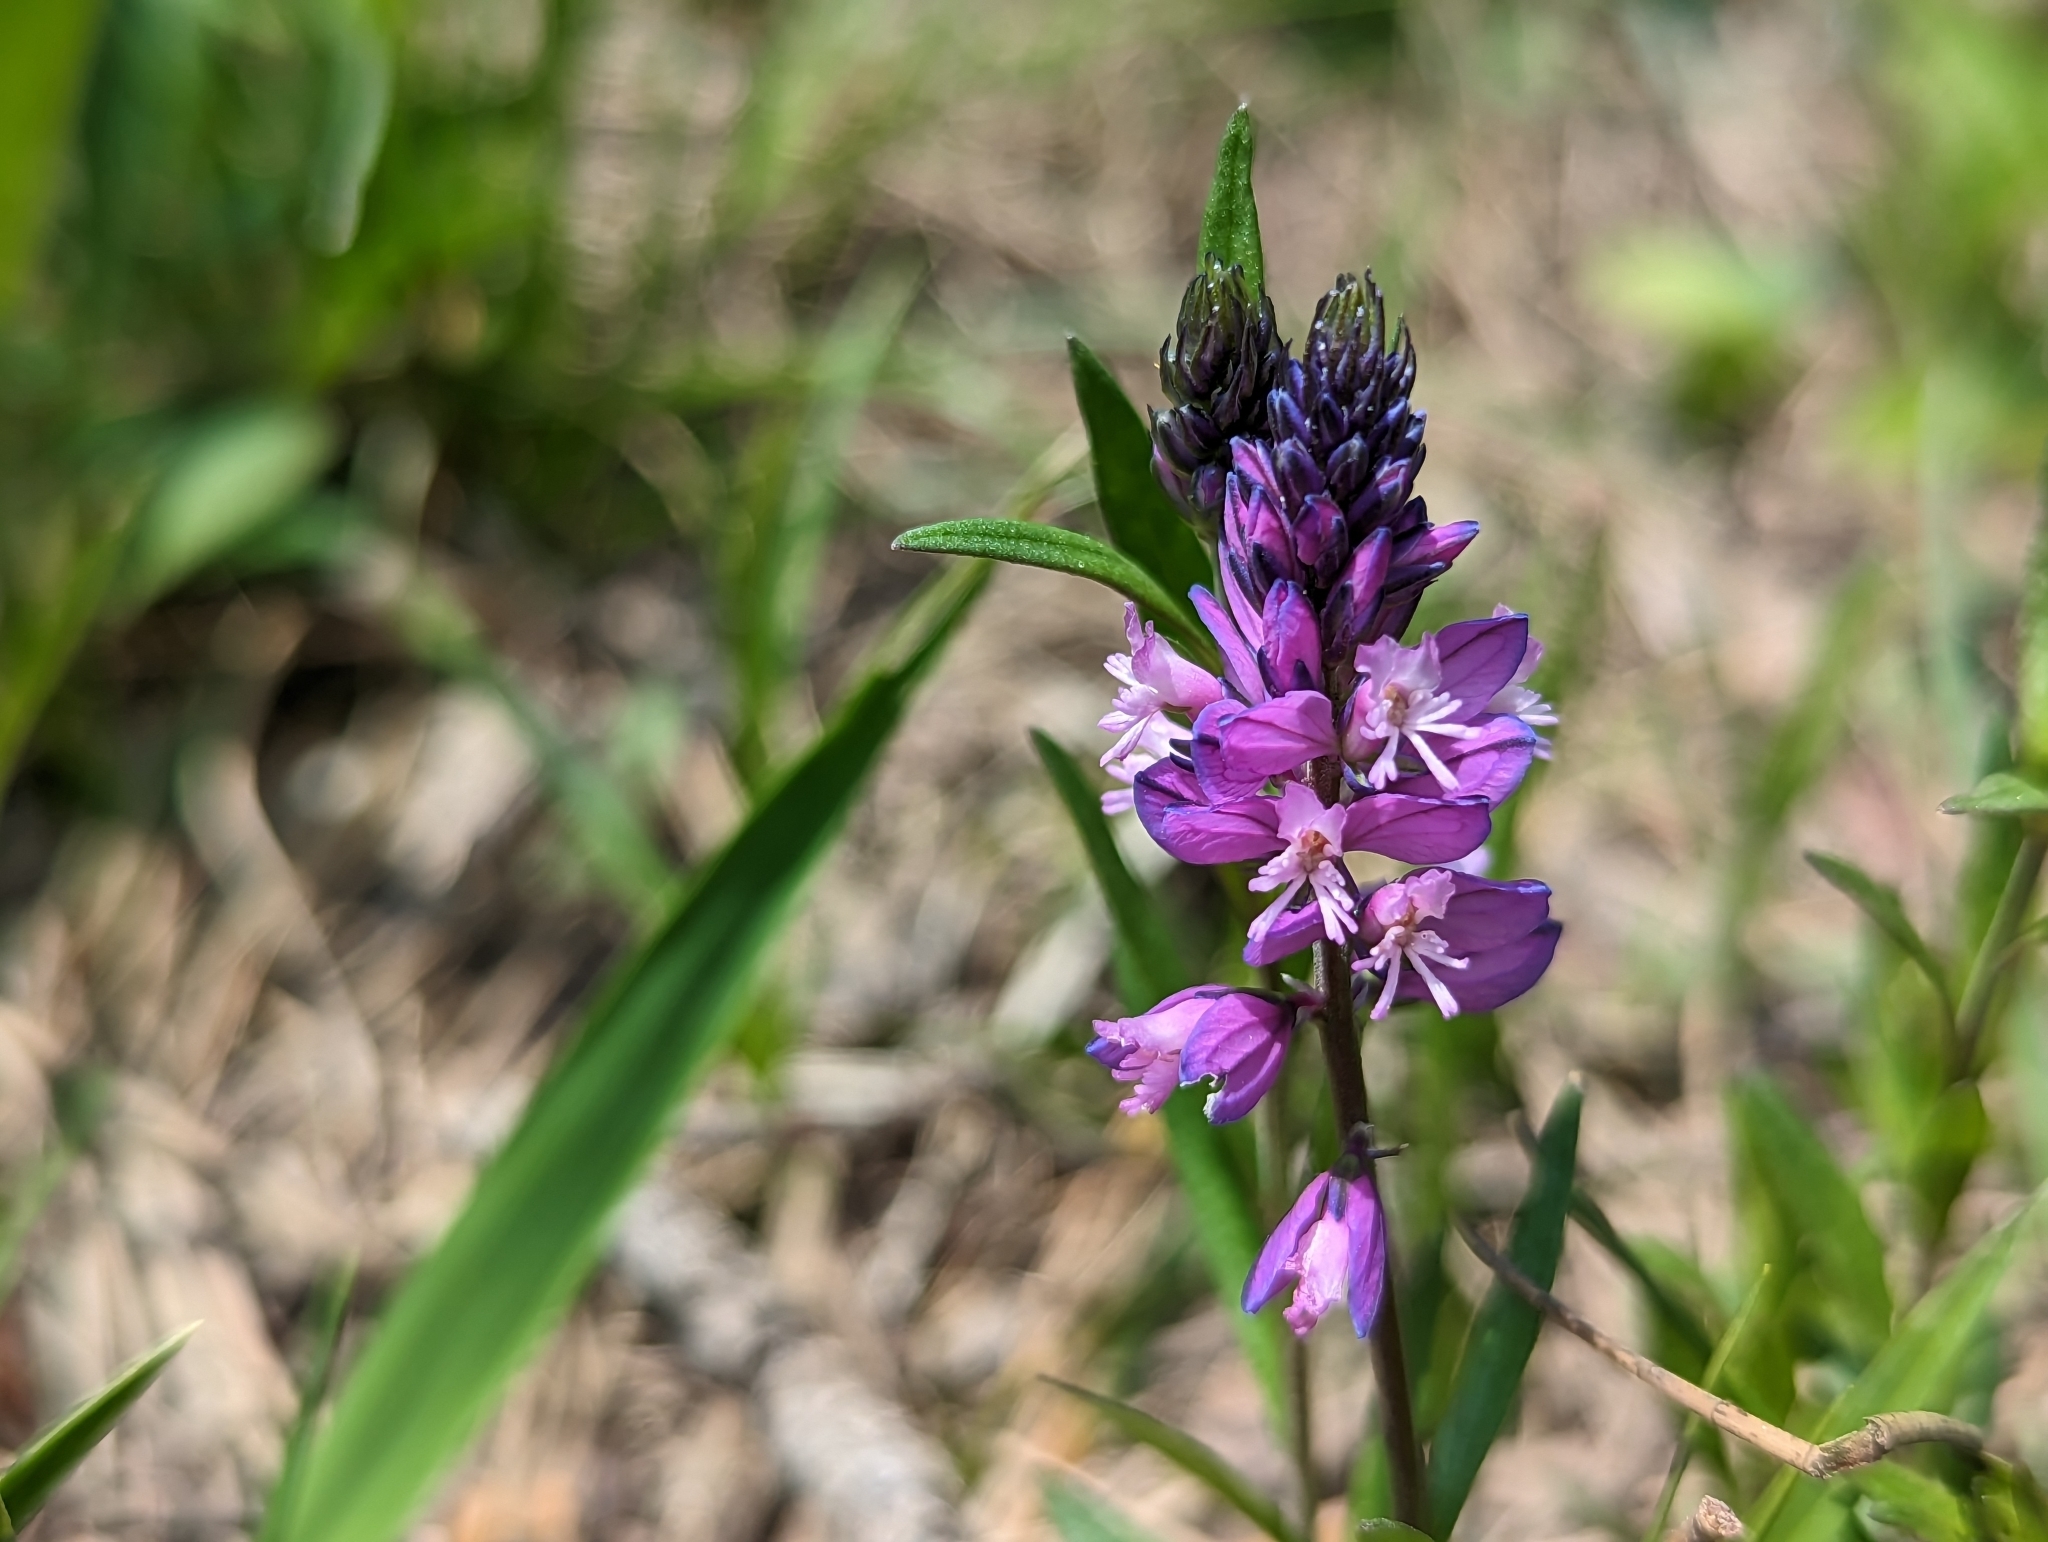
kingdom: Plantae
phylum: Tracheophyta
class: Magnoliopsida
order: Fabales
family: Polygalaceae
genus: Polygala
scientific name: Polygala comosa
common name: Tufted milkwort
